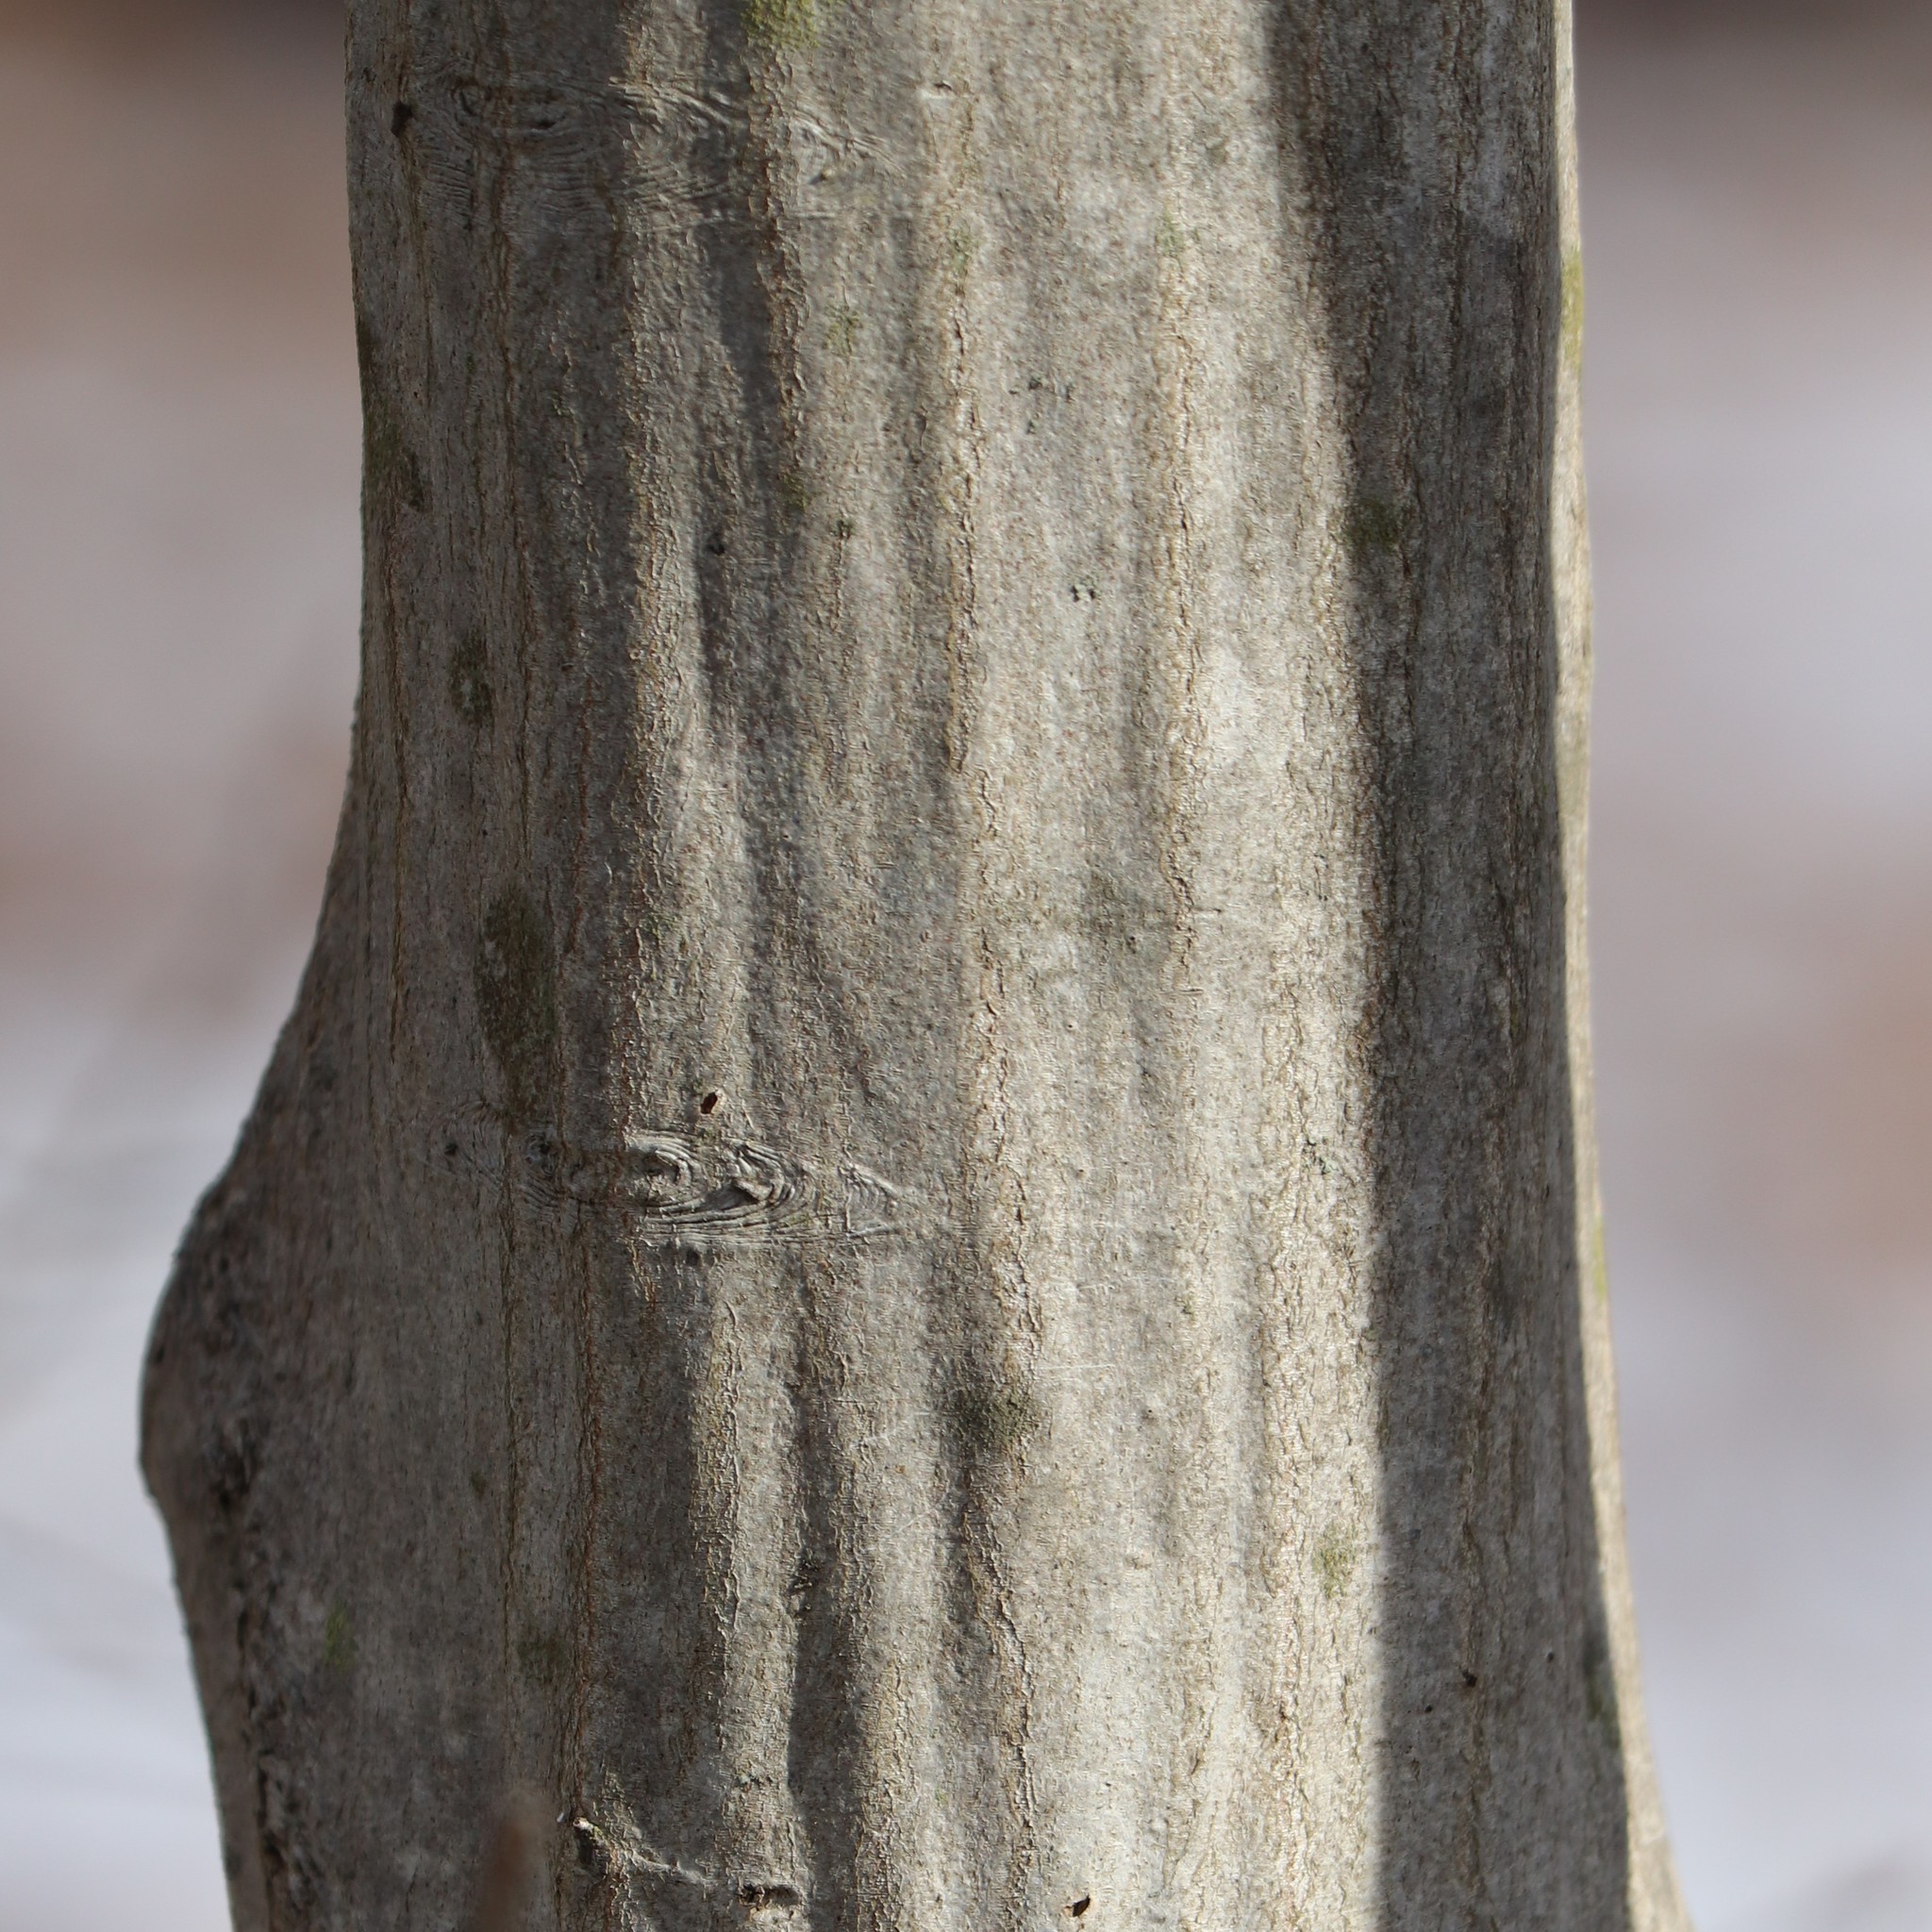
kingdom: Plantae
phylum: Tracheophyta
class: Magnoliopsida
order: Fagales
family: Betulaceae
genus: Carpinus
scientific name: Carpinus caroliniana
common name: American hornbeam
